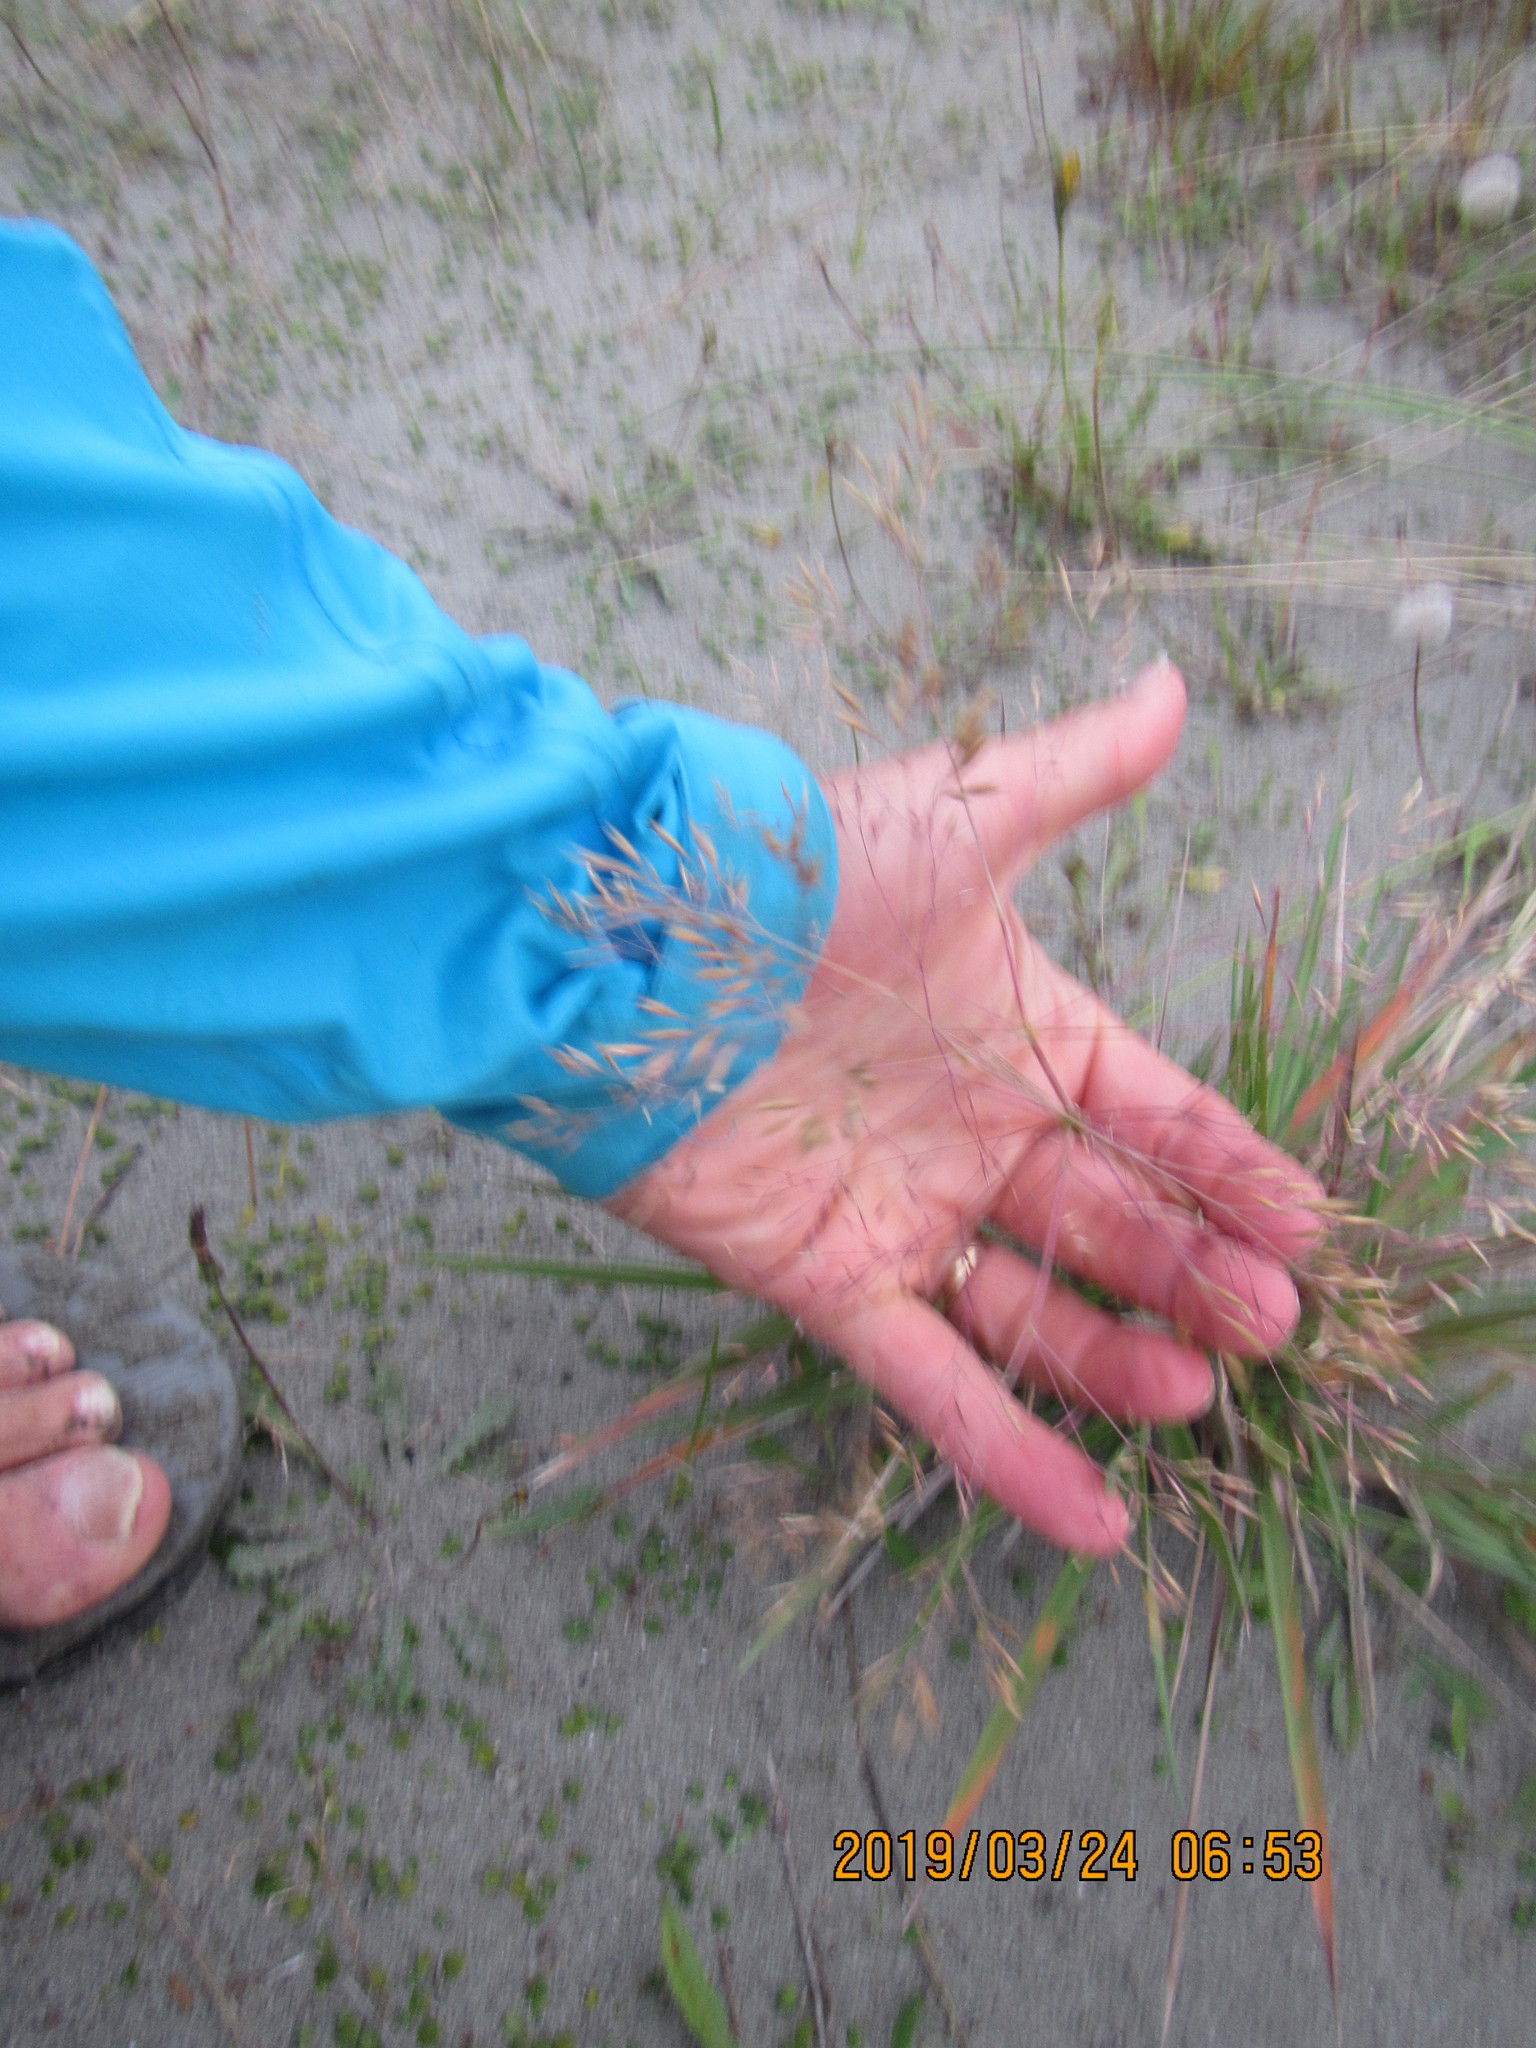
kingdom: Plantae
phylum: Tracheophyta
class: Liliopsida
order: Poales
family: Poaceae
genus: Lachnagrostis
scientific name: Lachnagrostis billardierei
